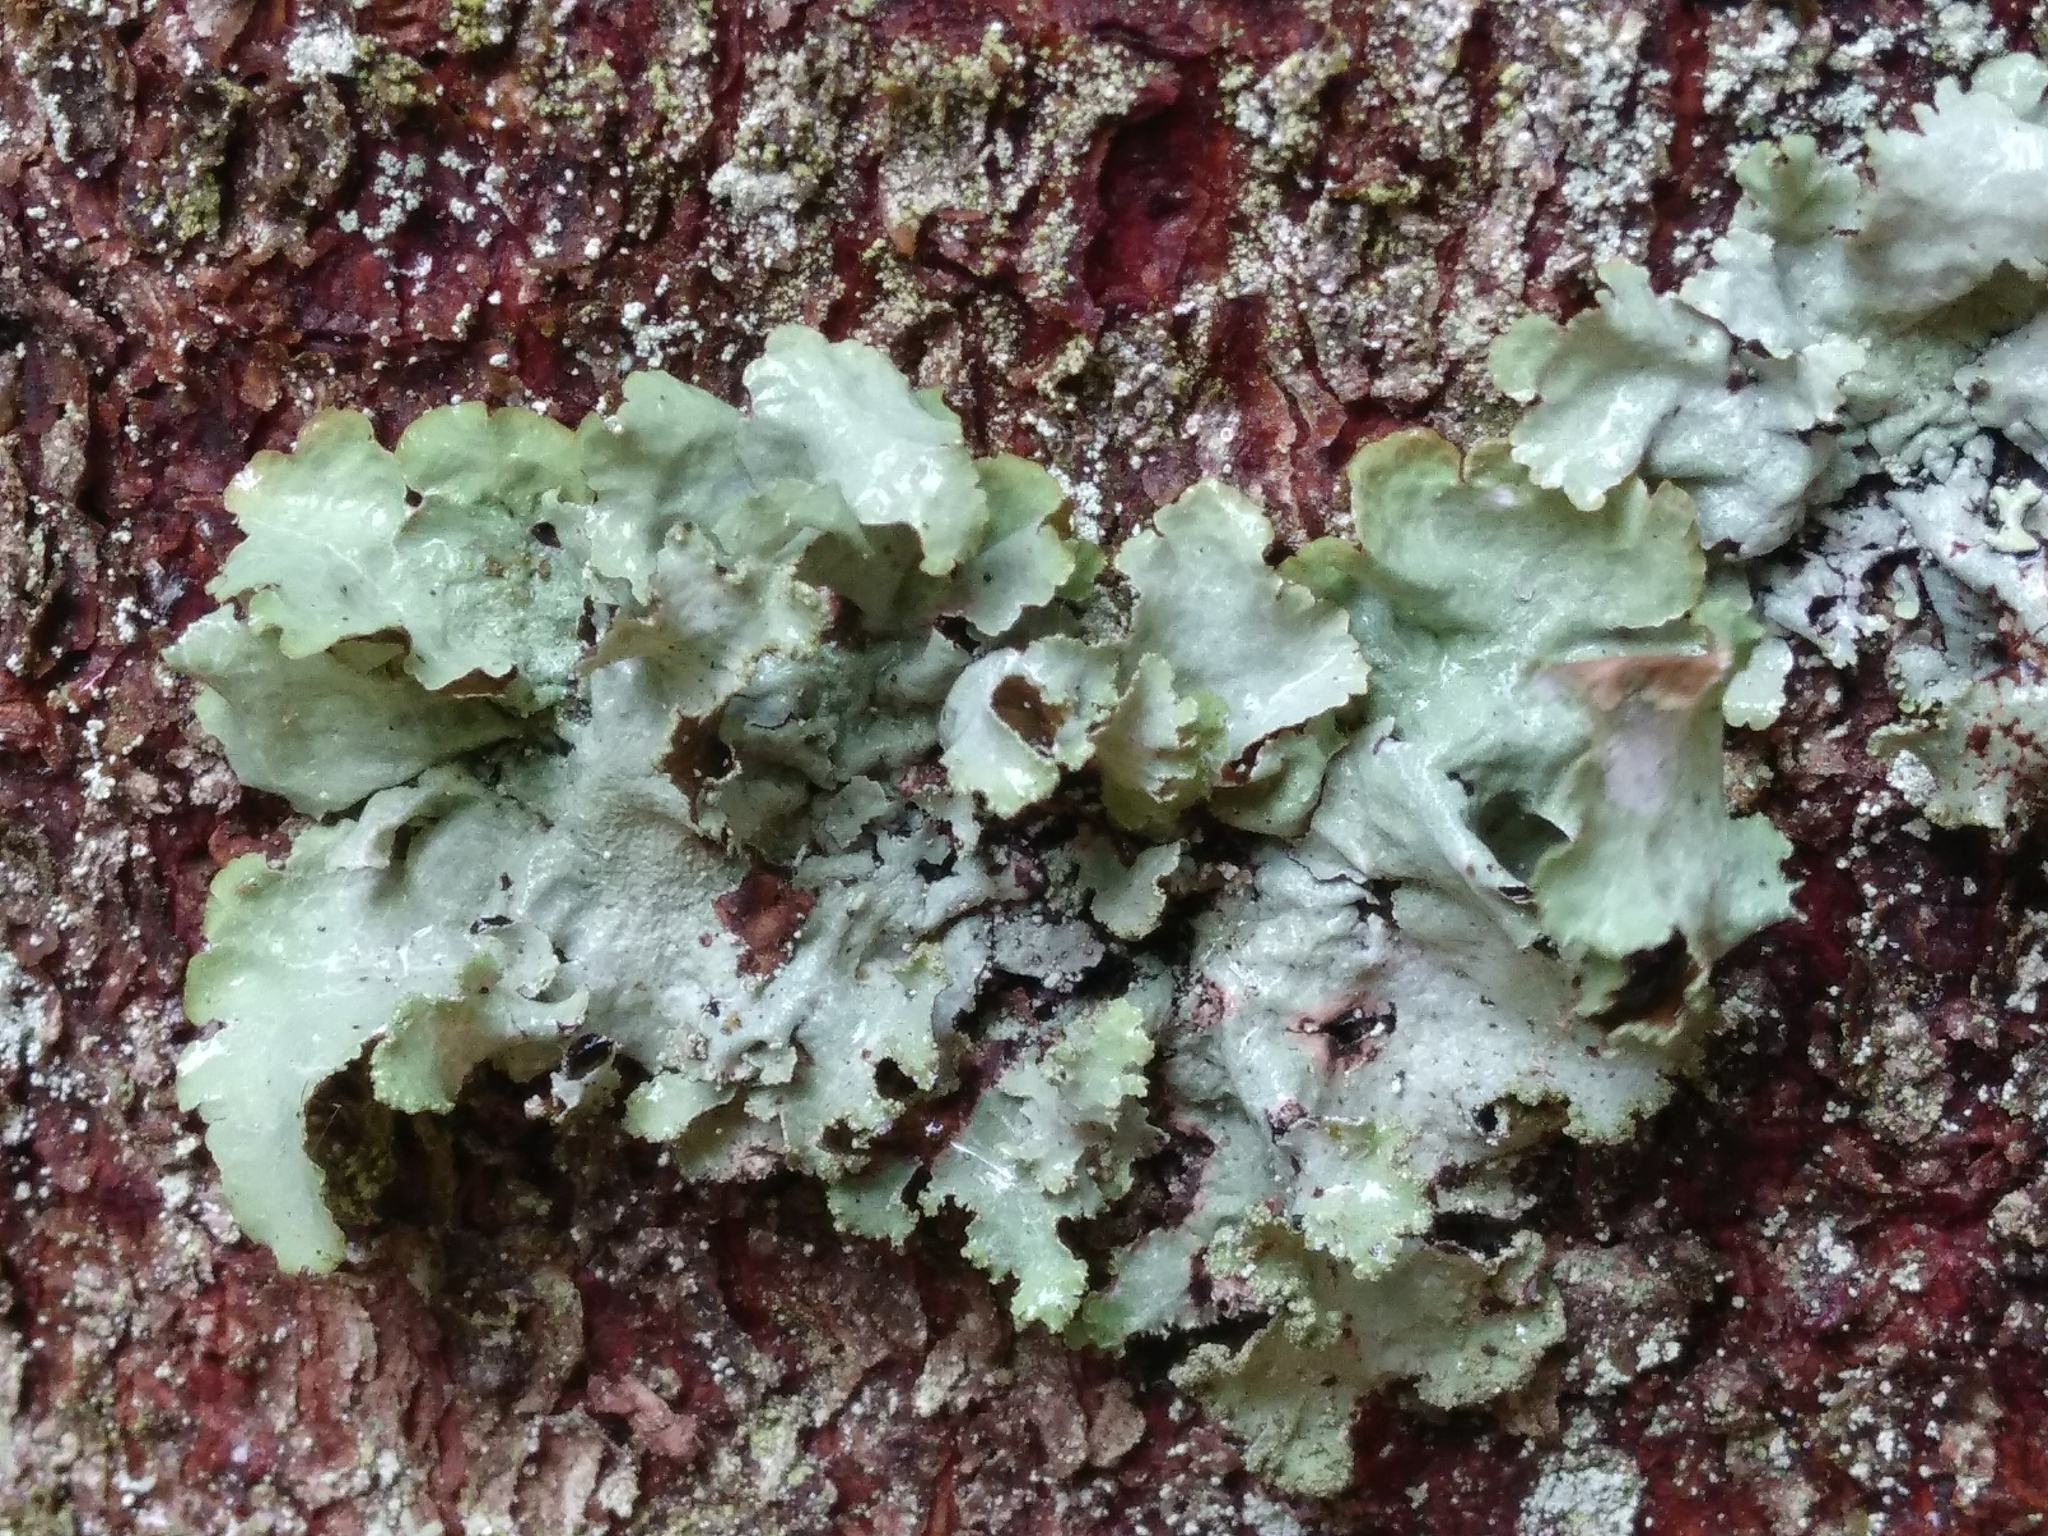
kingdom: Fungi
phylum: Ascomycota
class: Lecanoromycetes
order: Lecanorales
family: Parmeliaceae
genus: Platismatia
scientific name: Platismatia glauca
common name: Varied rag lichen
